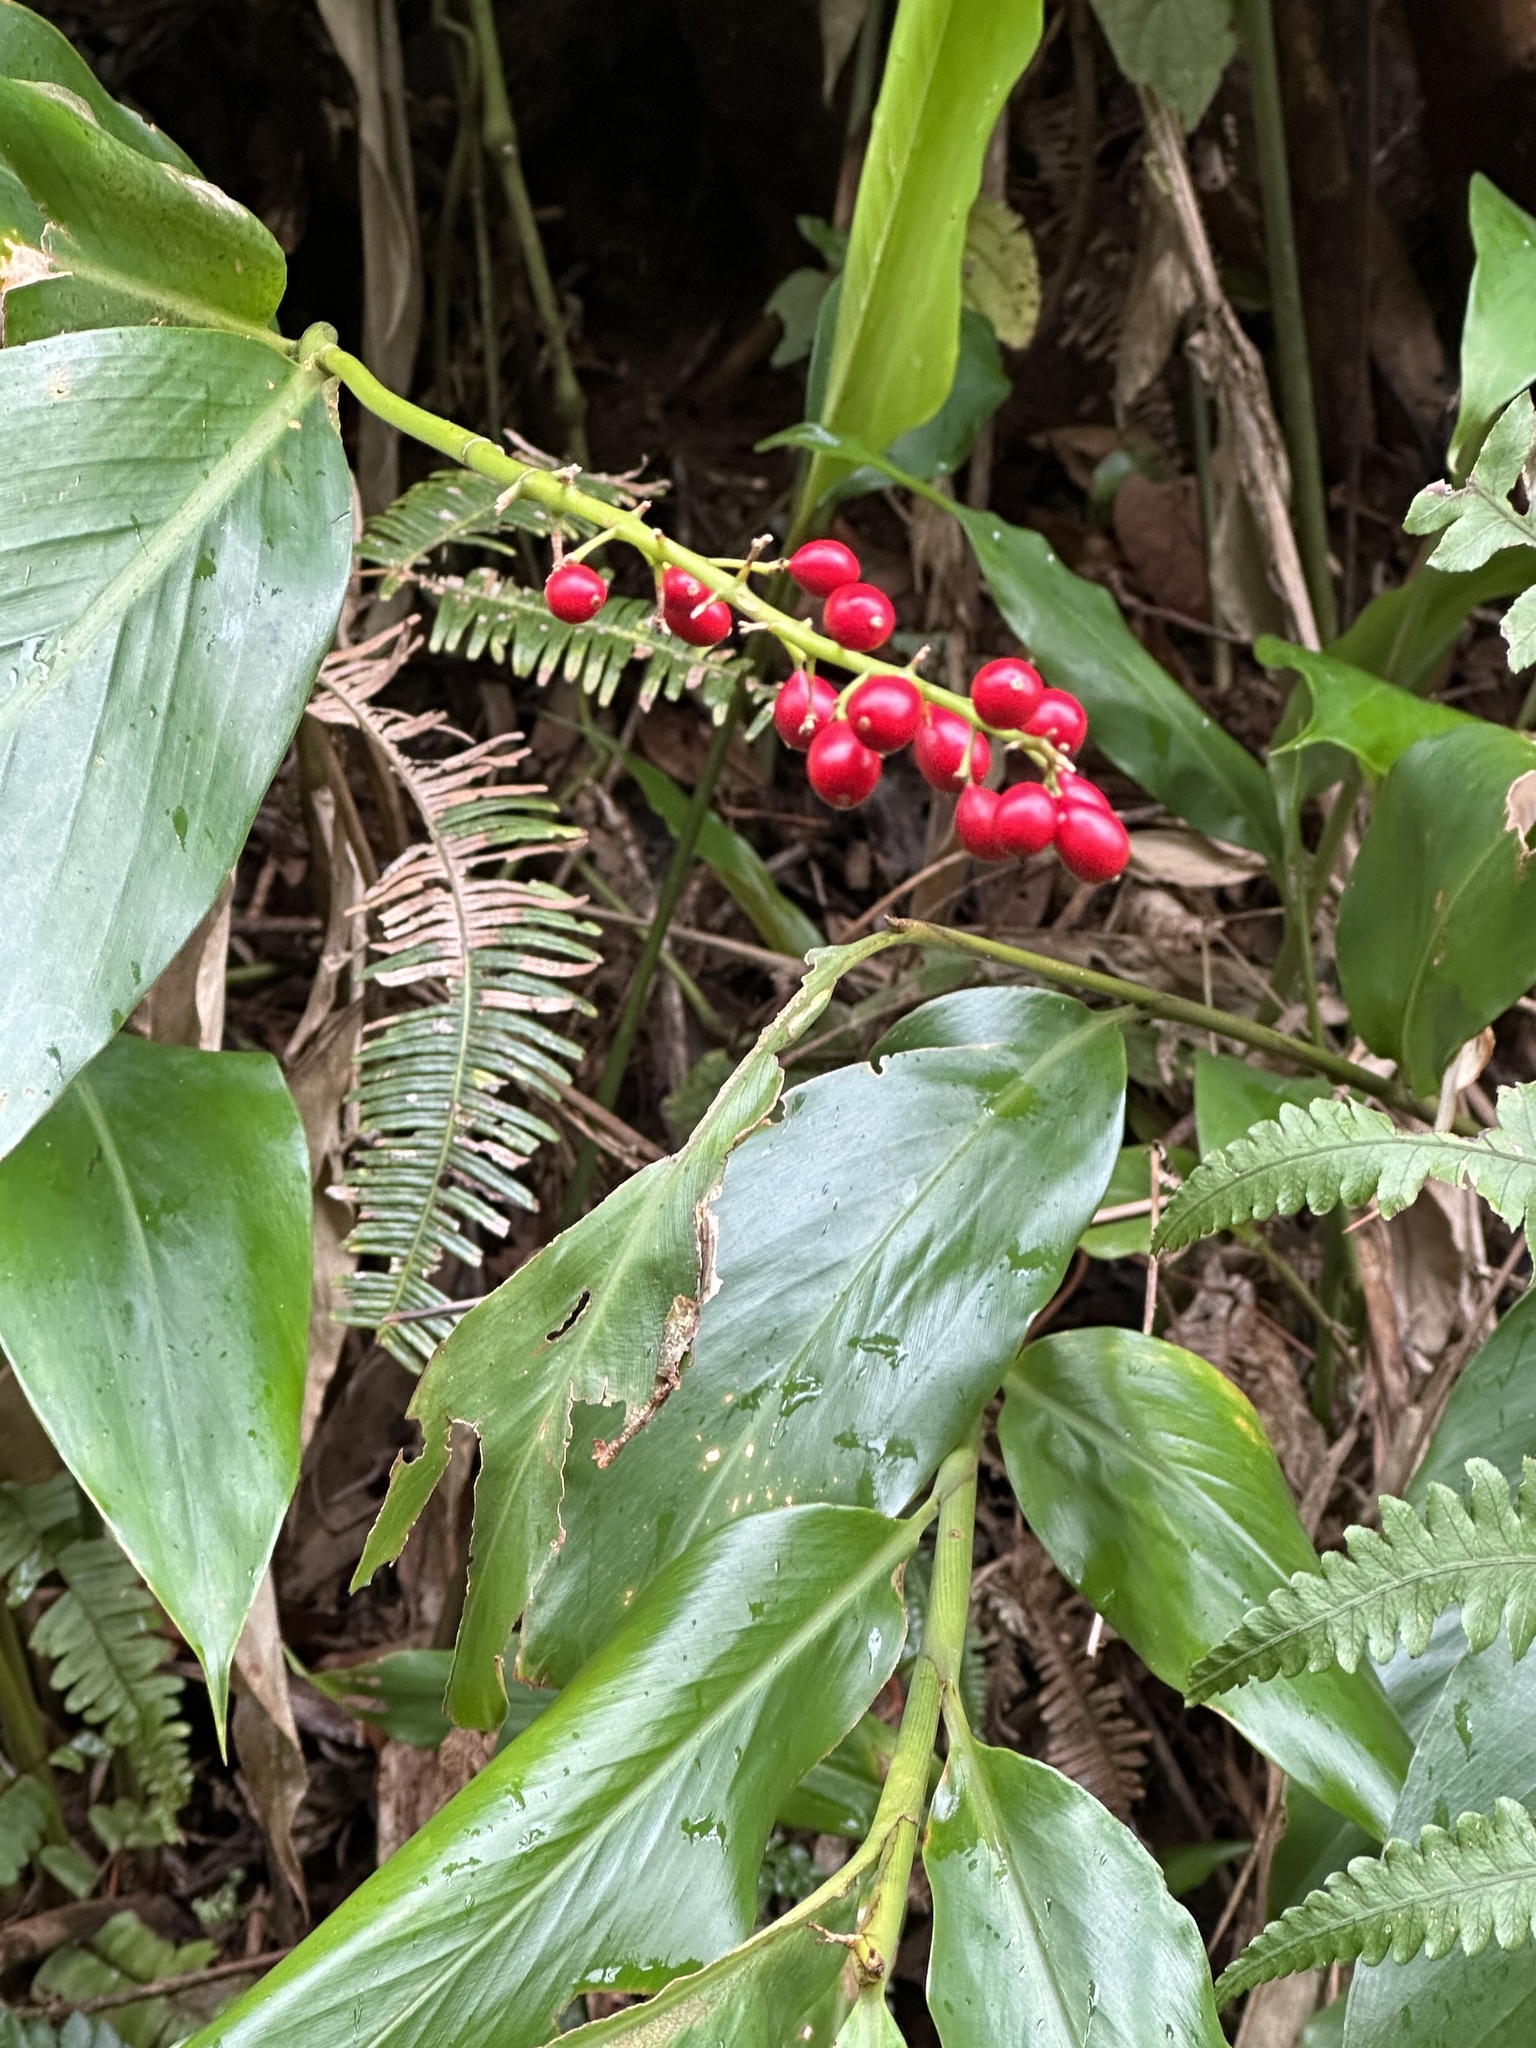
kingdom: Plantae
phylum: Tracheophyta
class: Liliopsida
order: Zingiberales
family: Zingiberaceae
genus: Alpinia
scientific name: Alpinia intermedia
